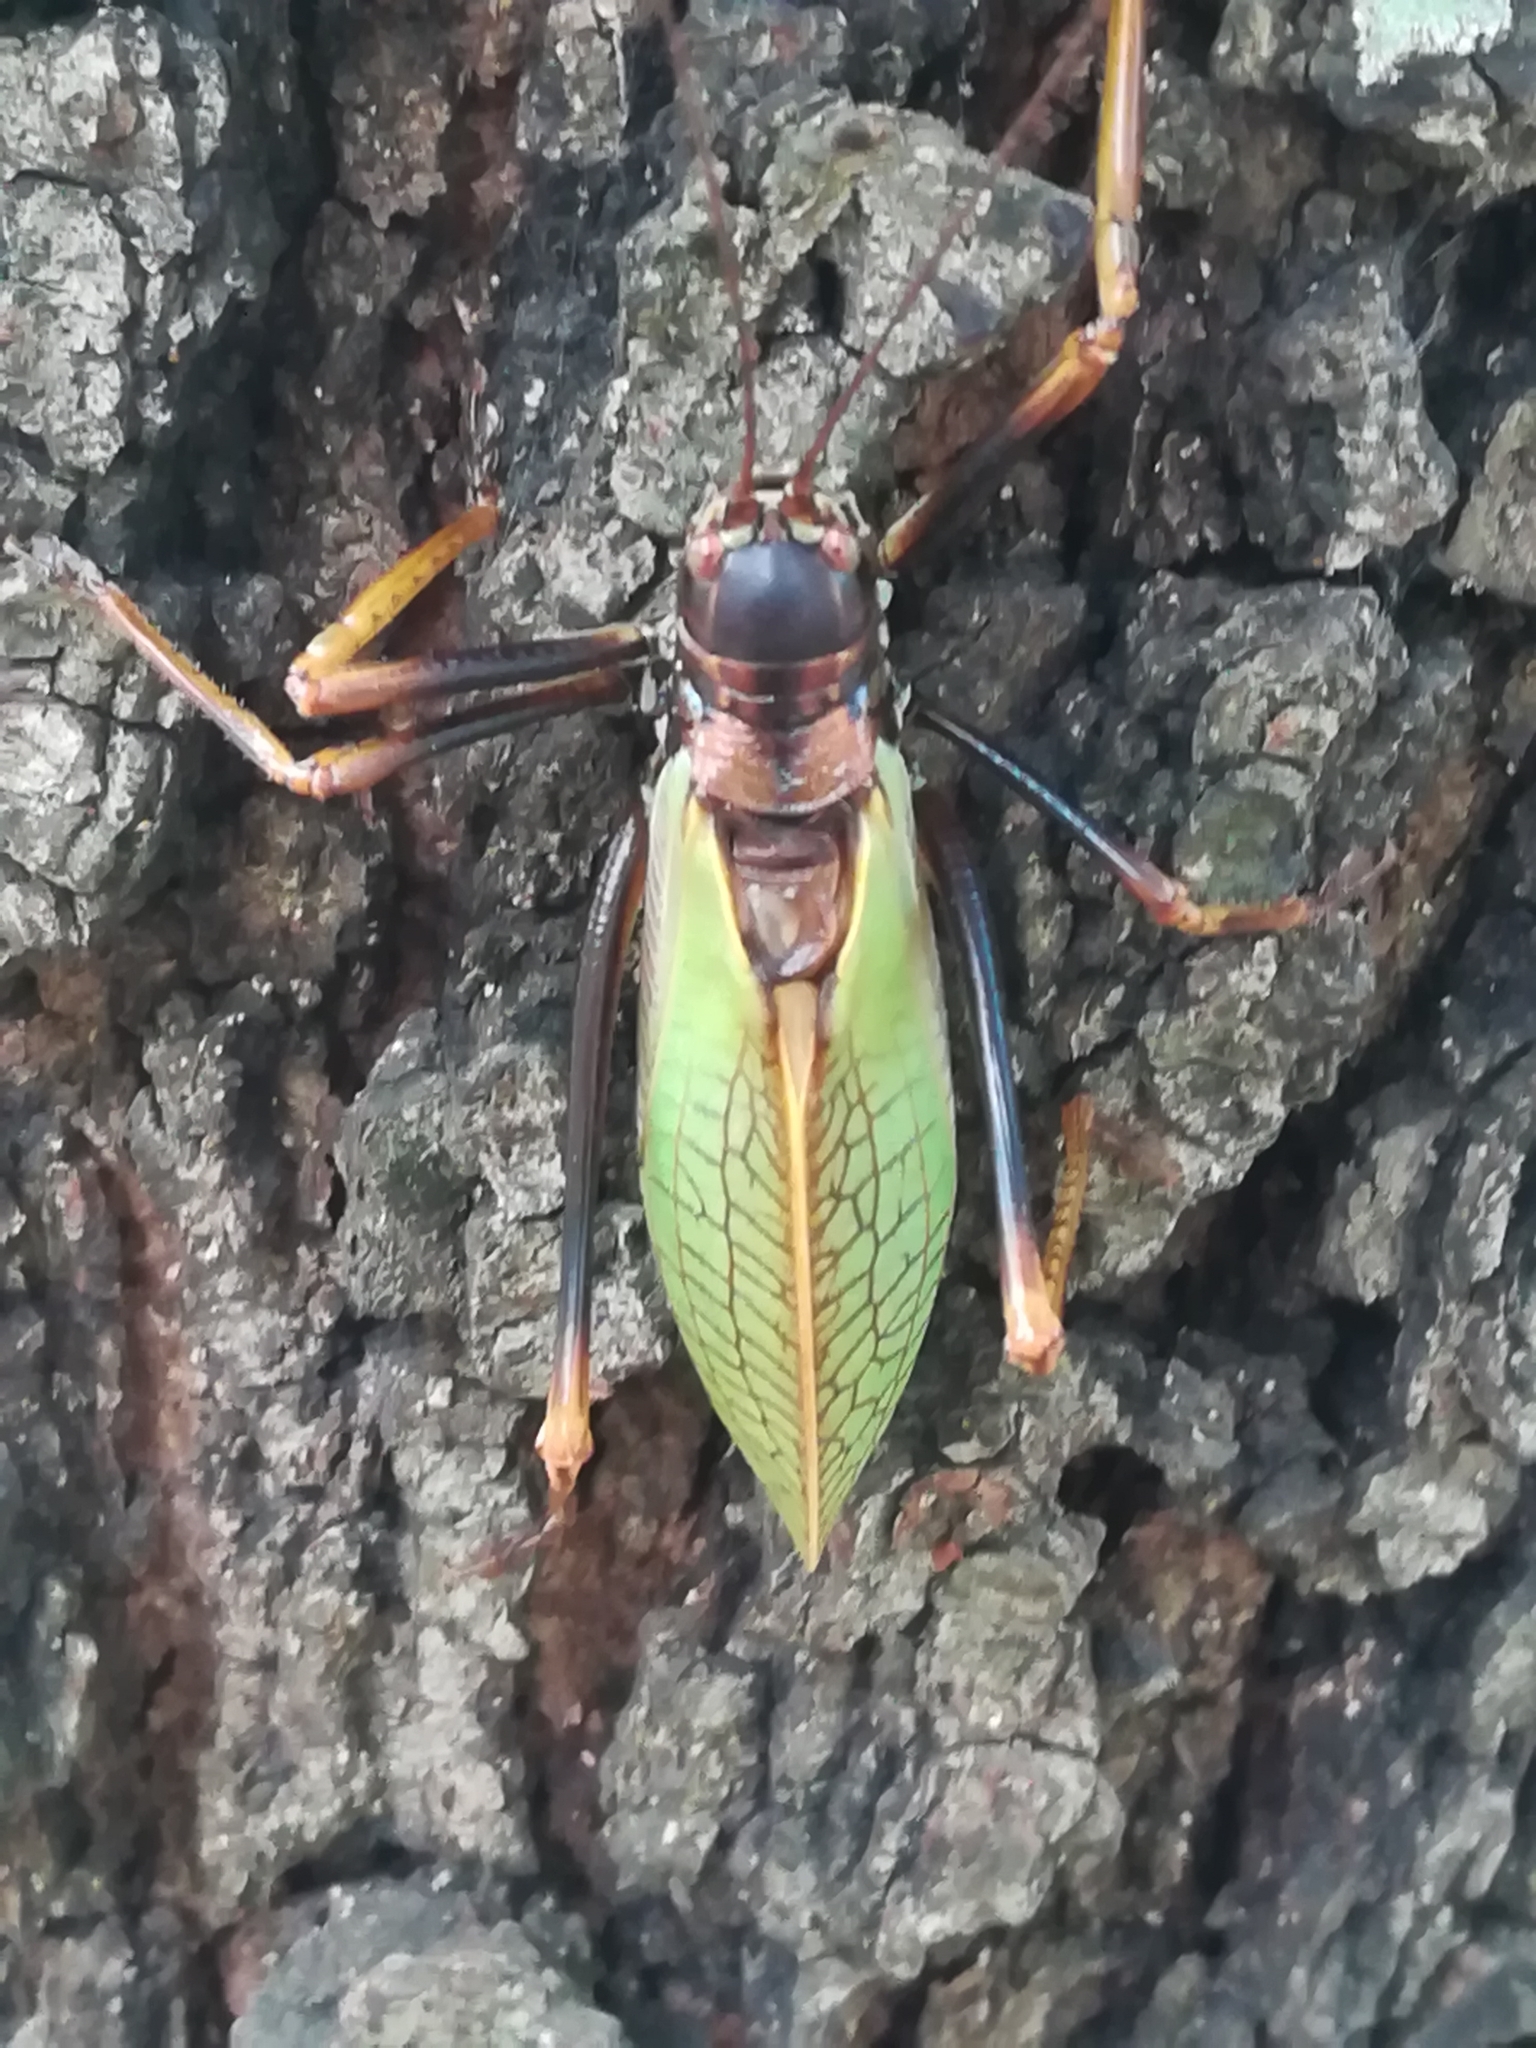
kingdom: Animalia
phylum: Arthropoda
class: Insecta
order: Orthoptera
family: Tettigoniidae
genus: Pterophylla
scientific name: Pterophylla beltrani
